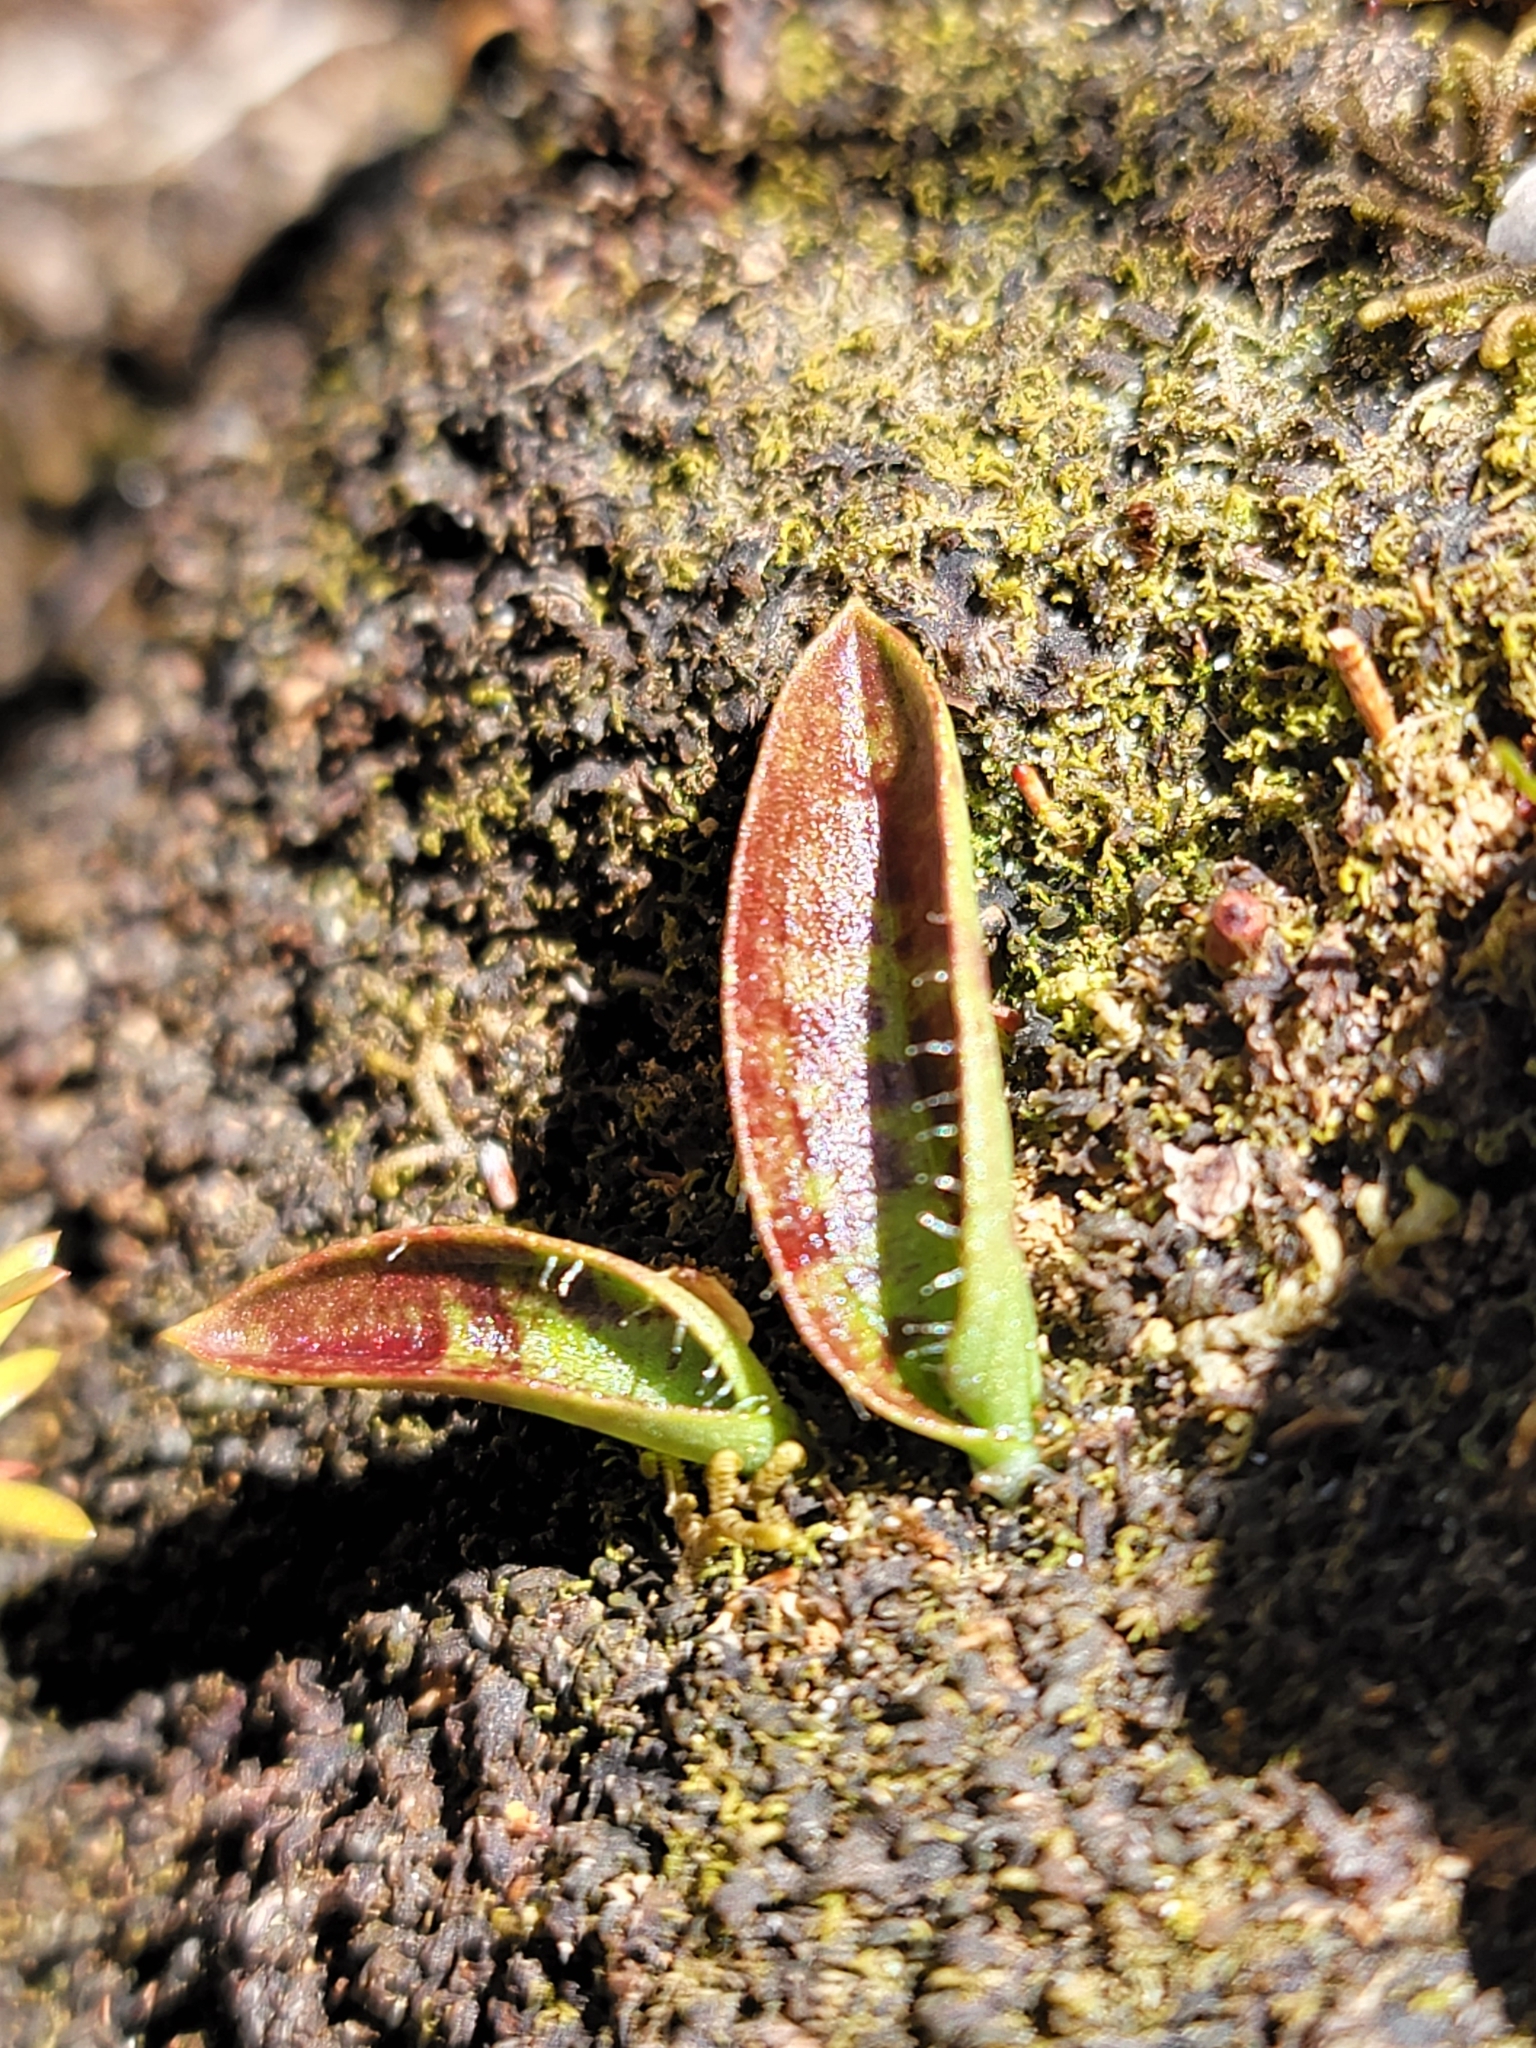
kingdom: Plantae
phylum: Tracheophyta
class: Liliopsida
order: Asparagales
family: Orchidaceae
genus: Aporostylis
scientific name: Aporostylis bifolia
